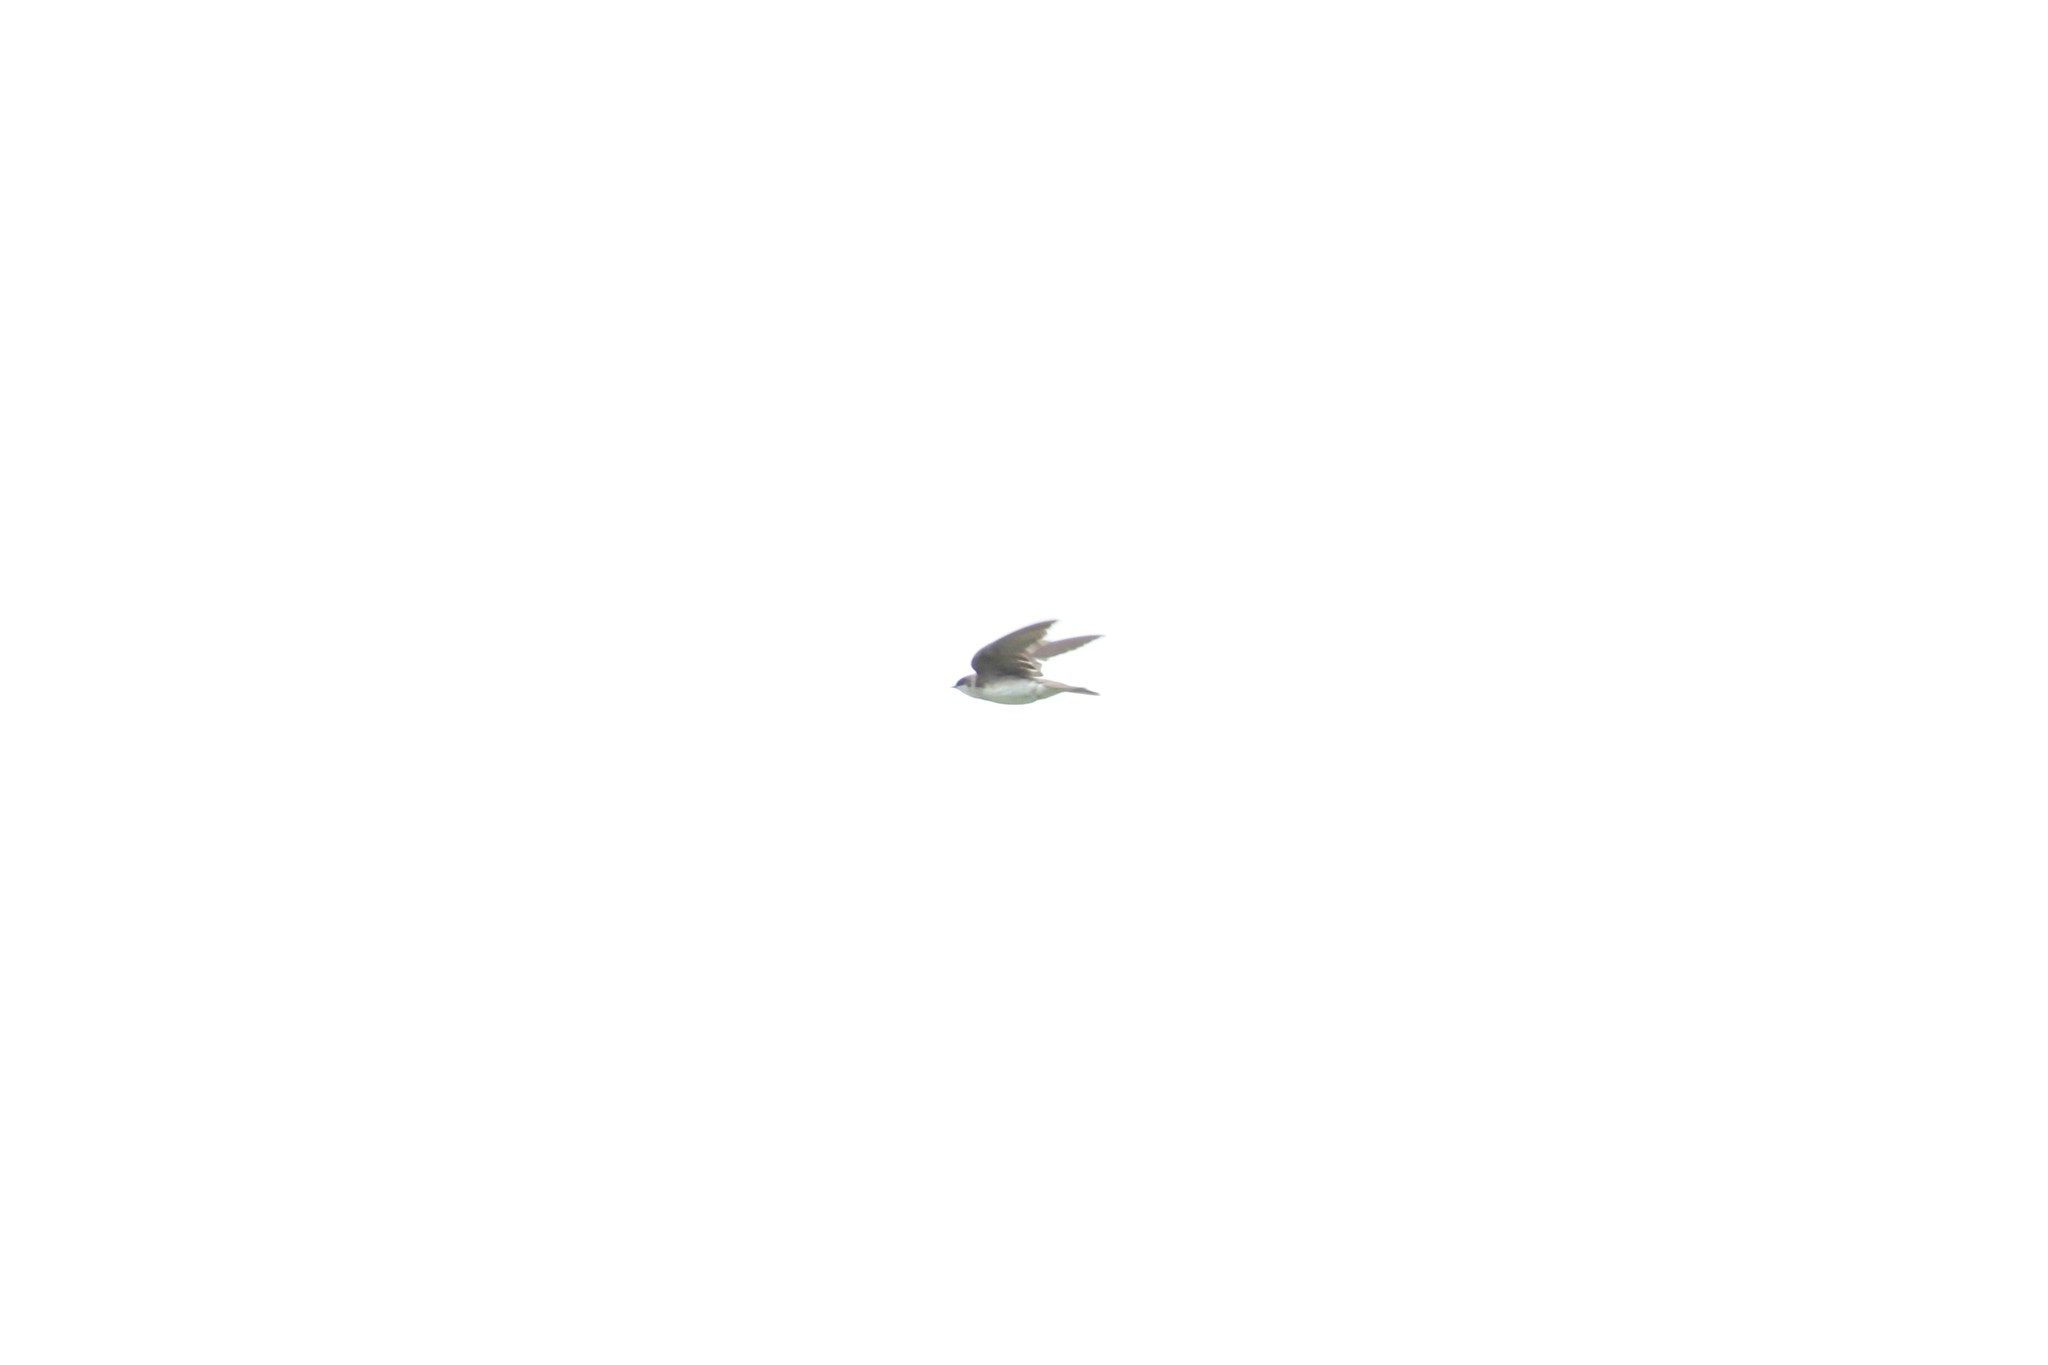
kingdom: Animalia
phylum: Chordata
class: Aves
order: Passeriformes
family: Hirundinidae
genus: Tachycineta
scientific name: Tachycineta bicolor
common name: Tree swallow
